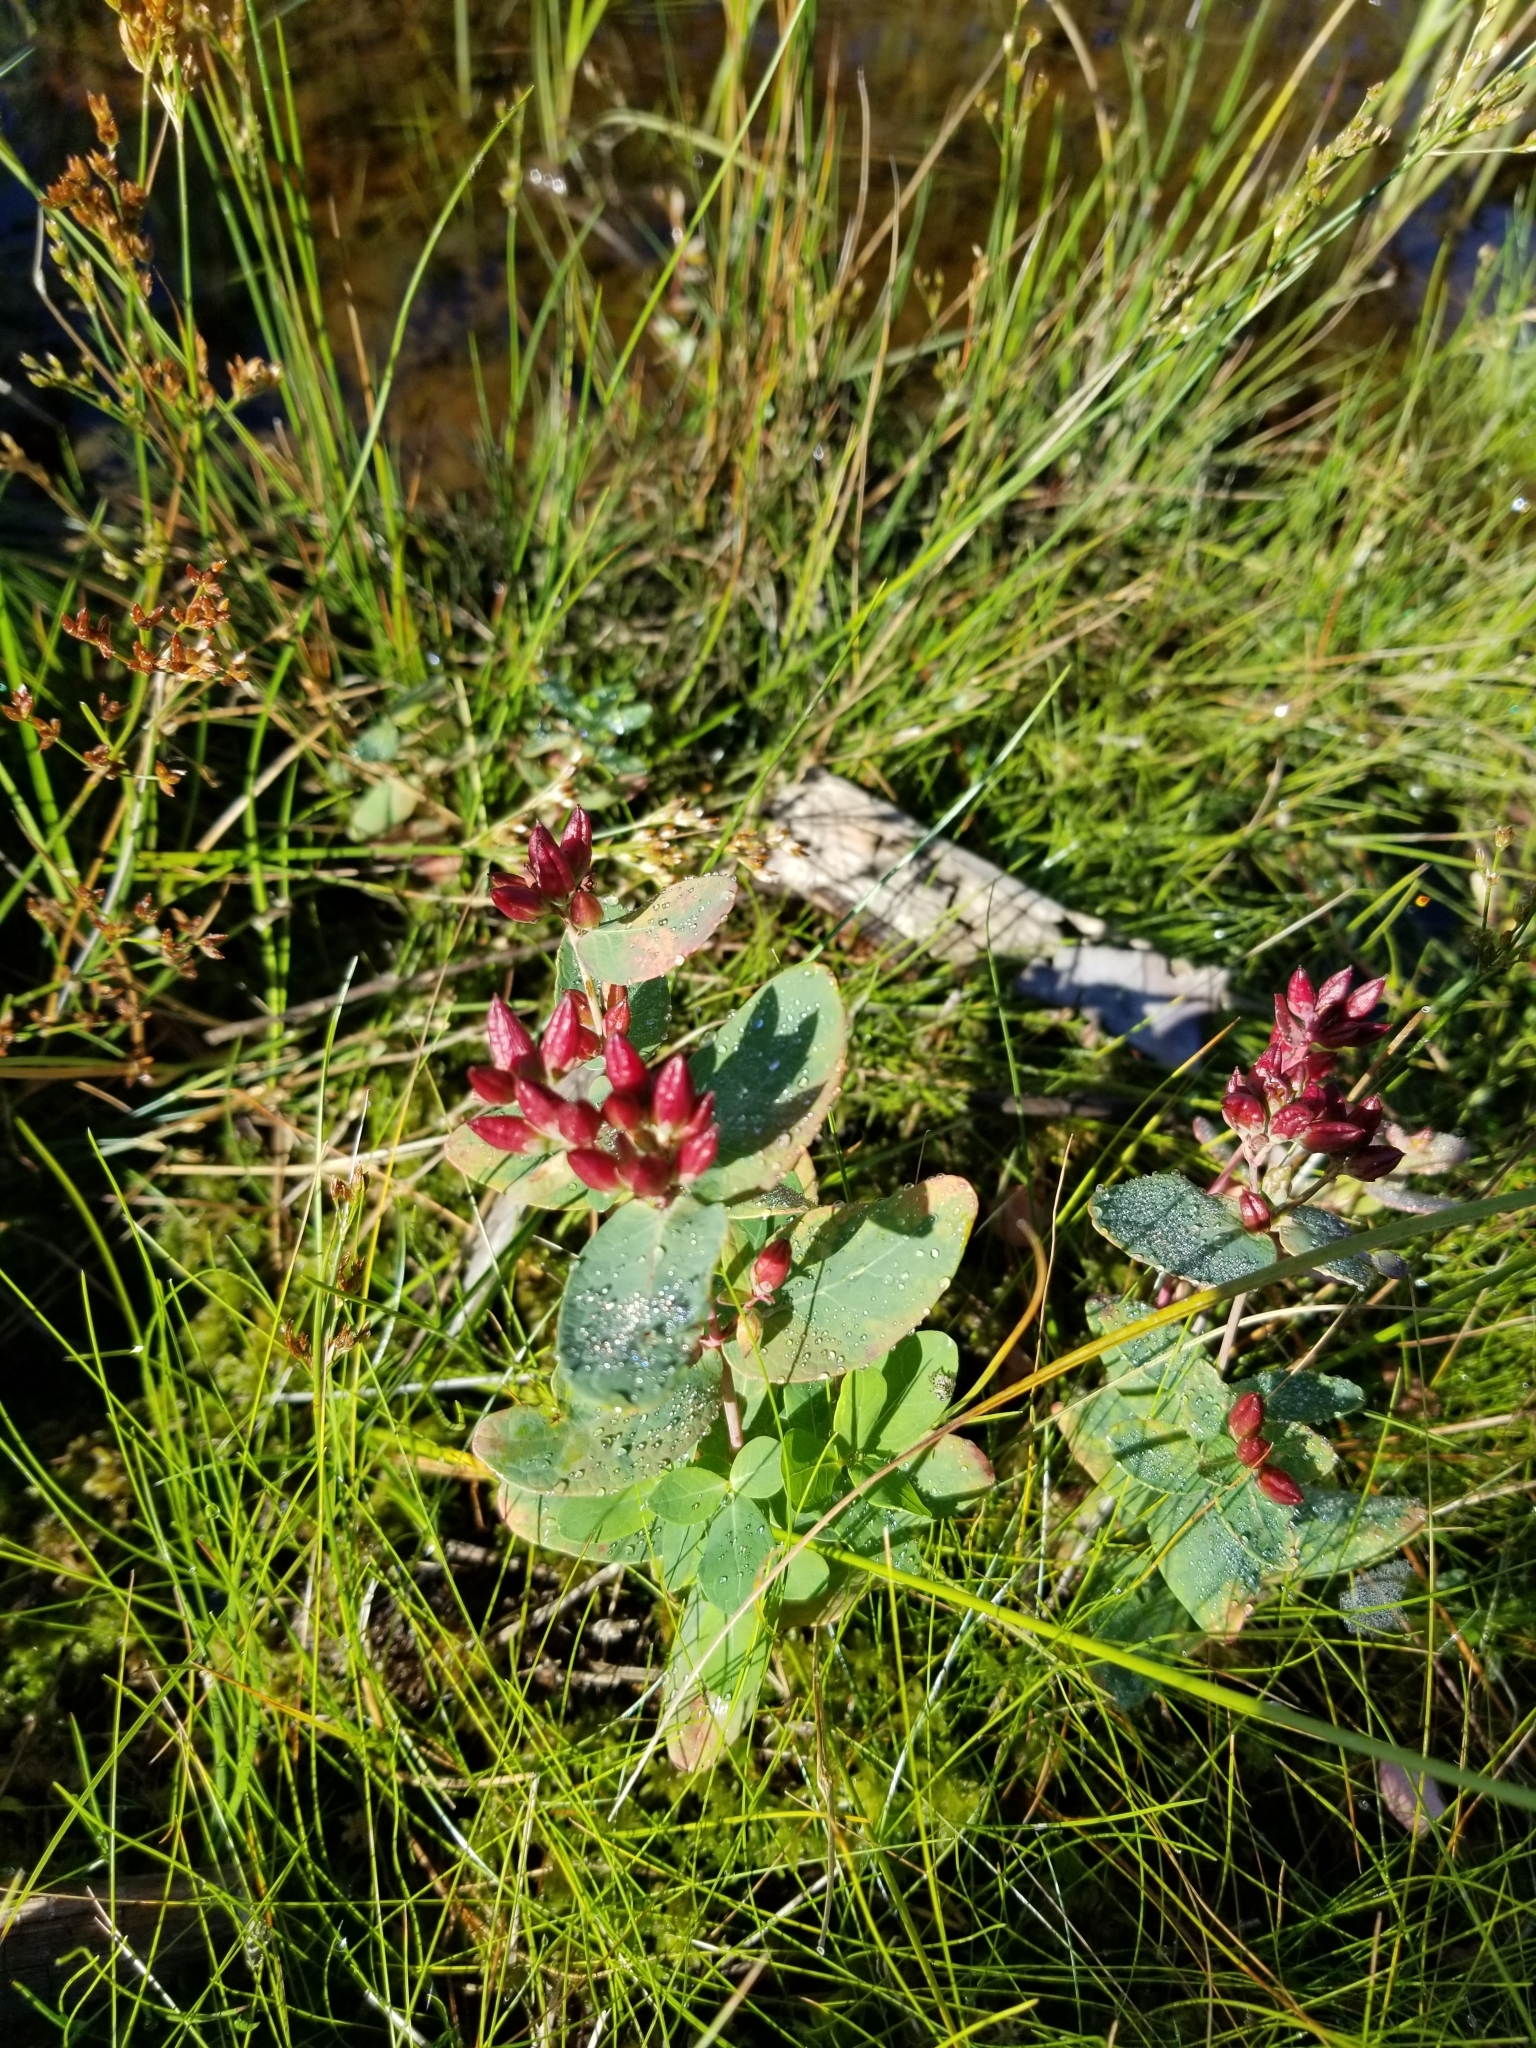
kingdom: Plantae
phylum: Tracheophyta
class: Magnoliopsida
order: Malpighiales
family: Hypericaceae
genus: Triadenum
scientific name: Triadenum fraseri
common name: Fraser's marsh st. johnswort
